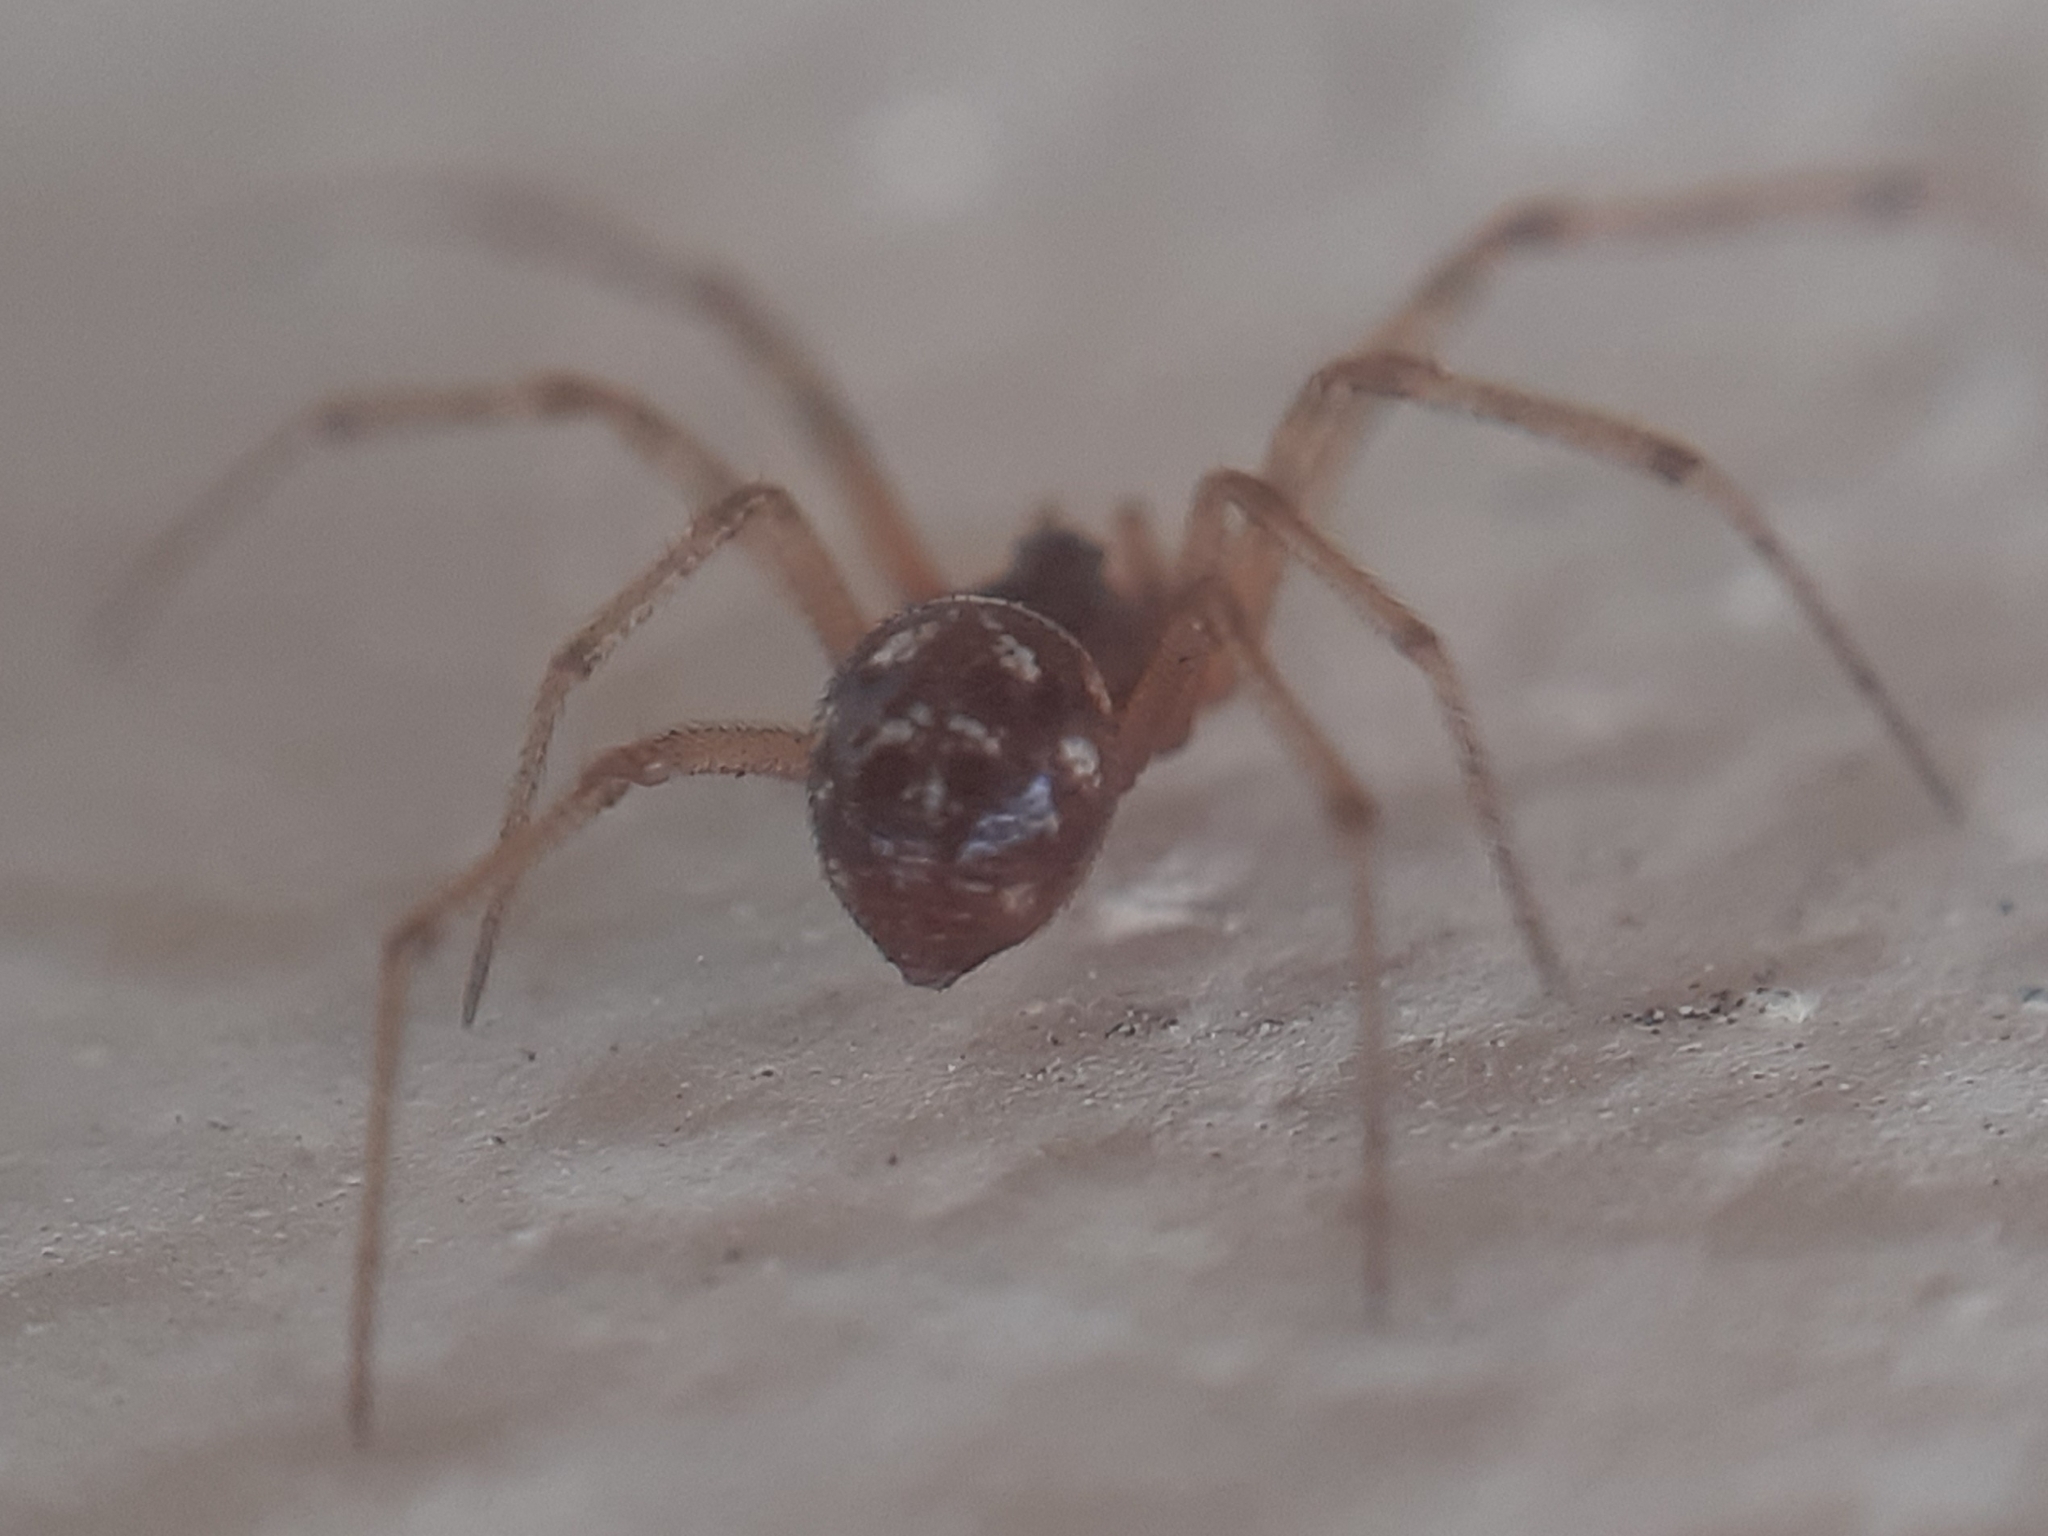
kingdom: Animalia
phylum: Arthropoda
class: Arachnida
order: Araneae
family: Theridiidae
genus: Steatoda
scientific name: Steatoda triangulosa
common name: Triangulate bud spider
